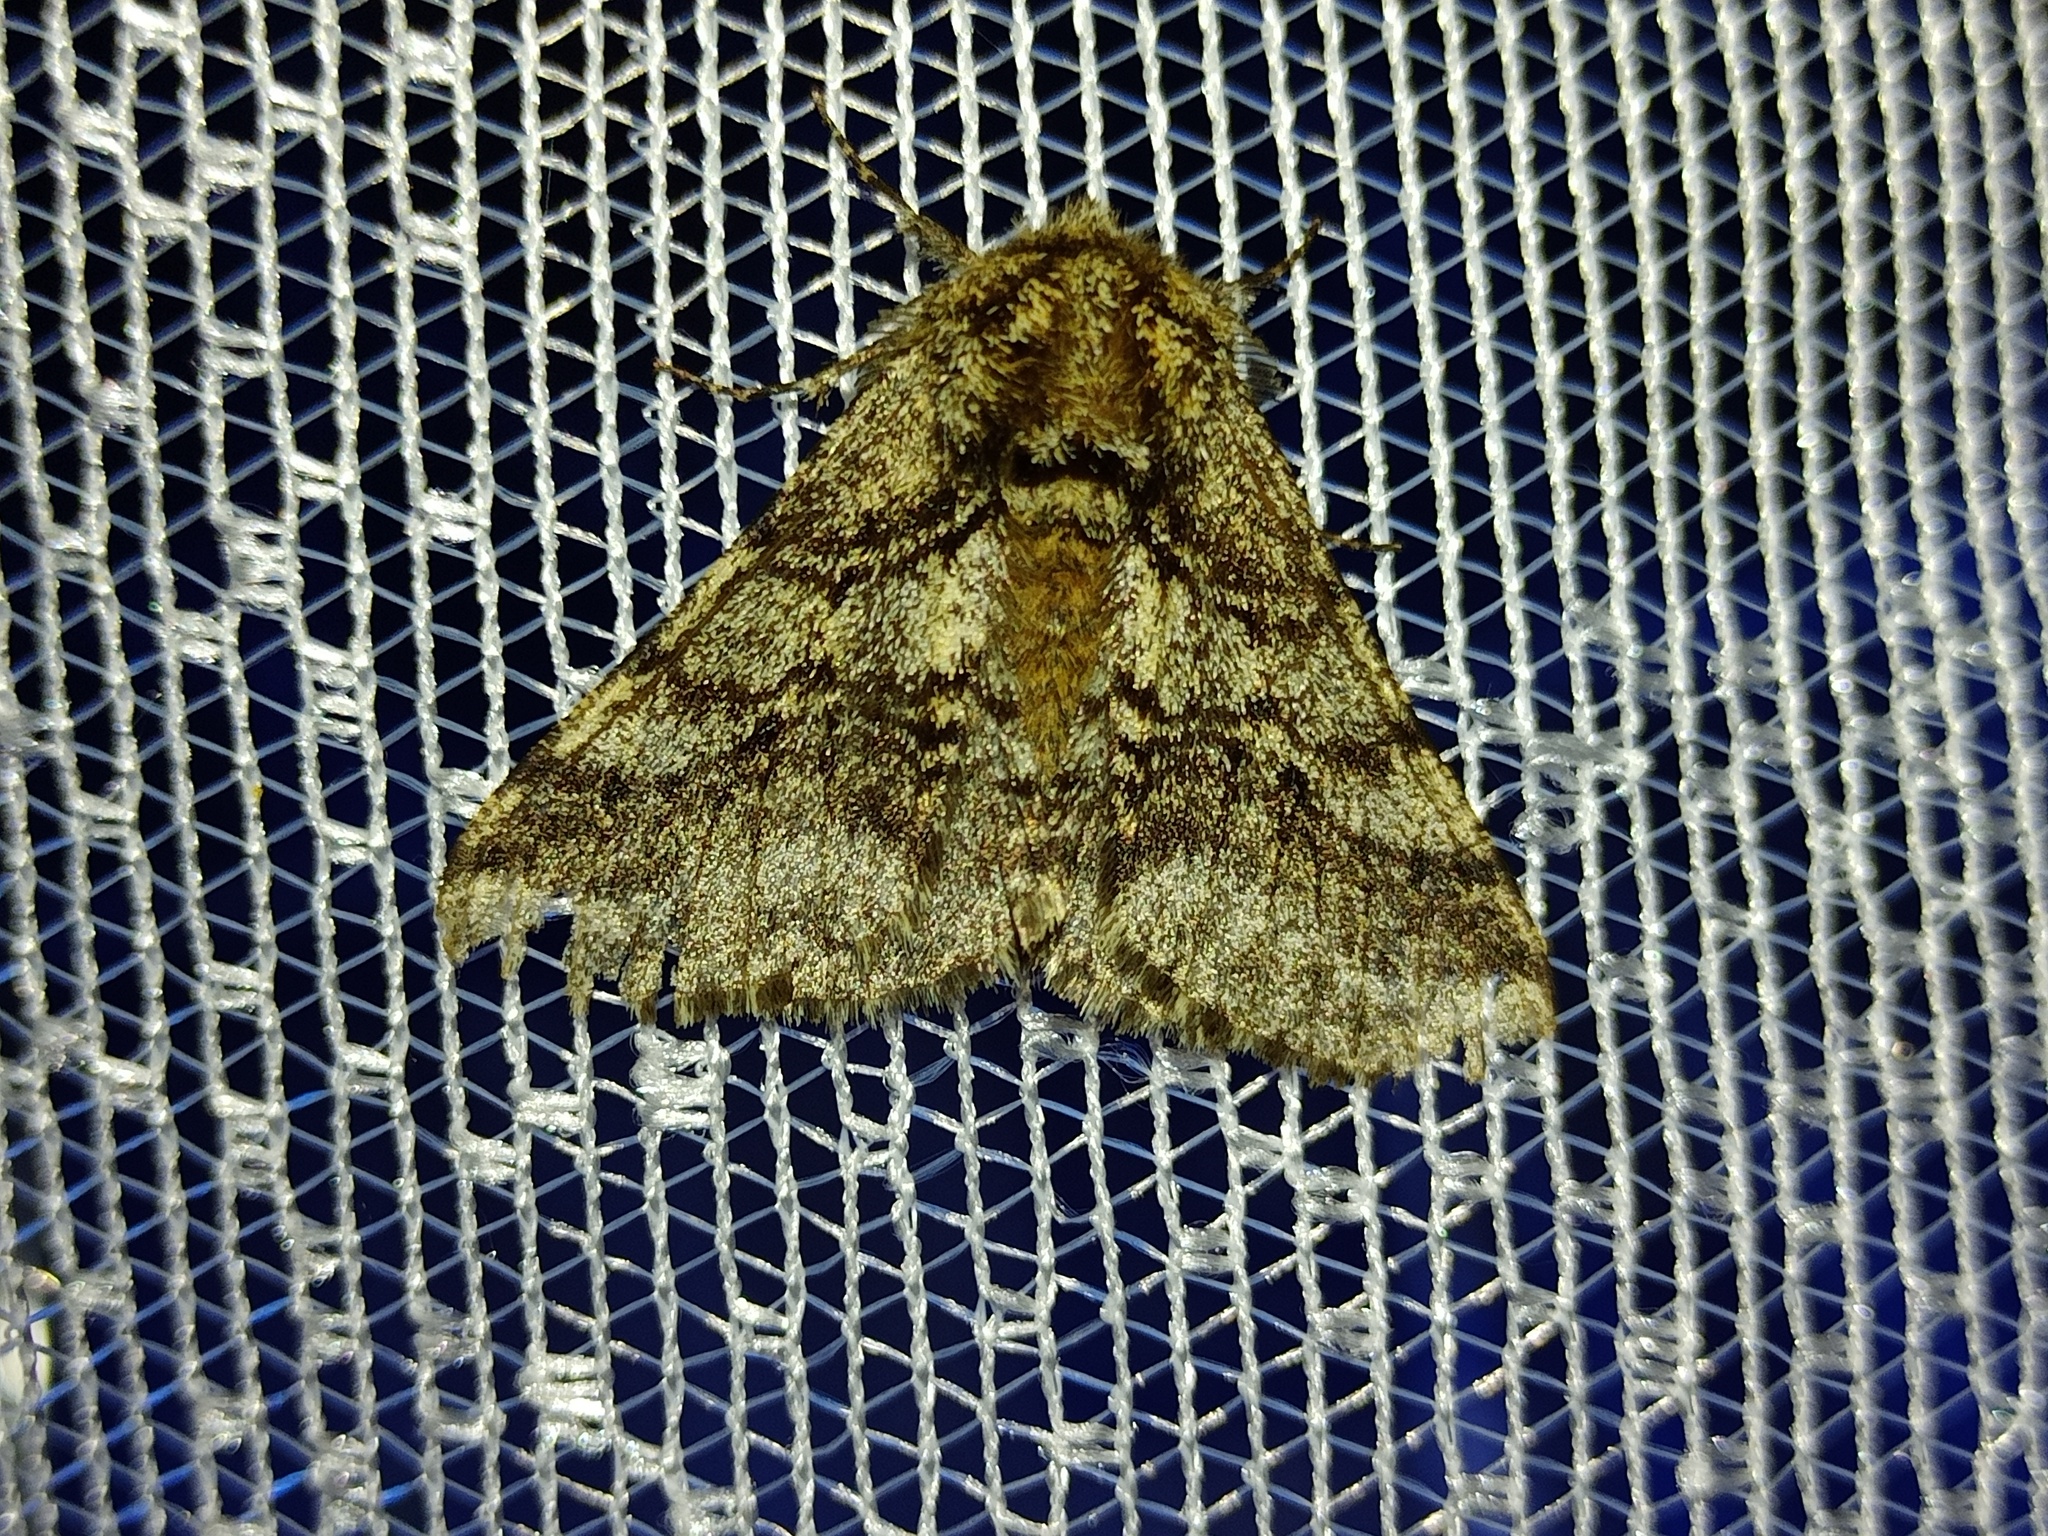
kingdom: Animalia
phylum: Arthropoda
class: Insecta
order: Lepidoptera
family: Geometridae
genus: Lycia
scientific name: Lycia hirtaria
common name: Brindled beauty
